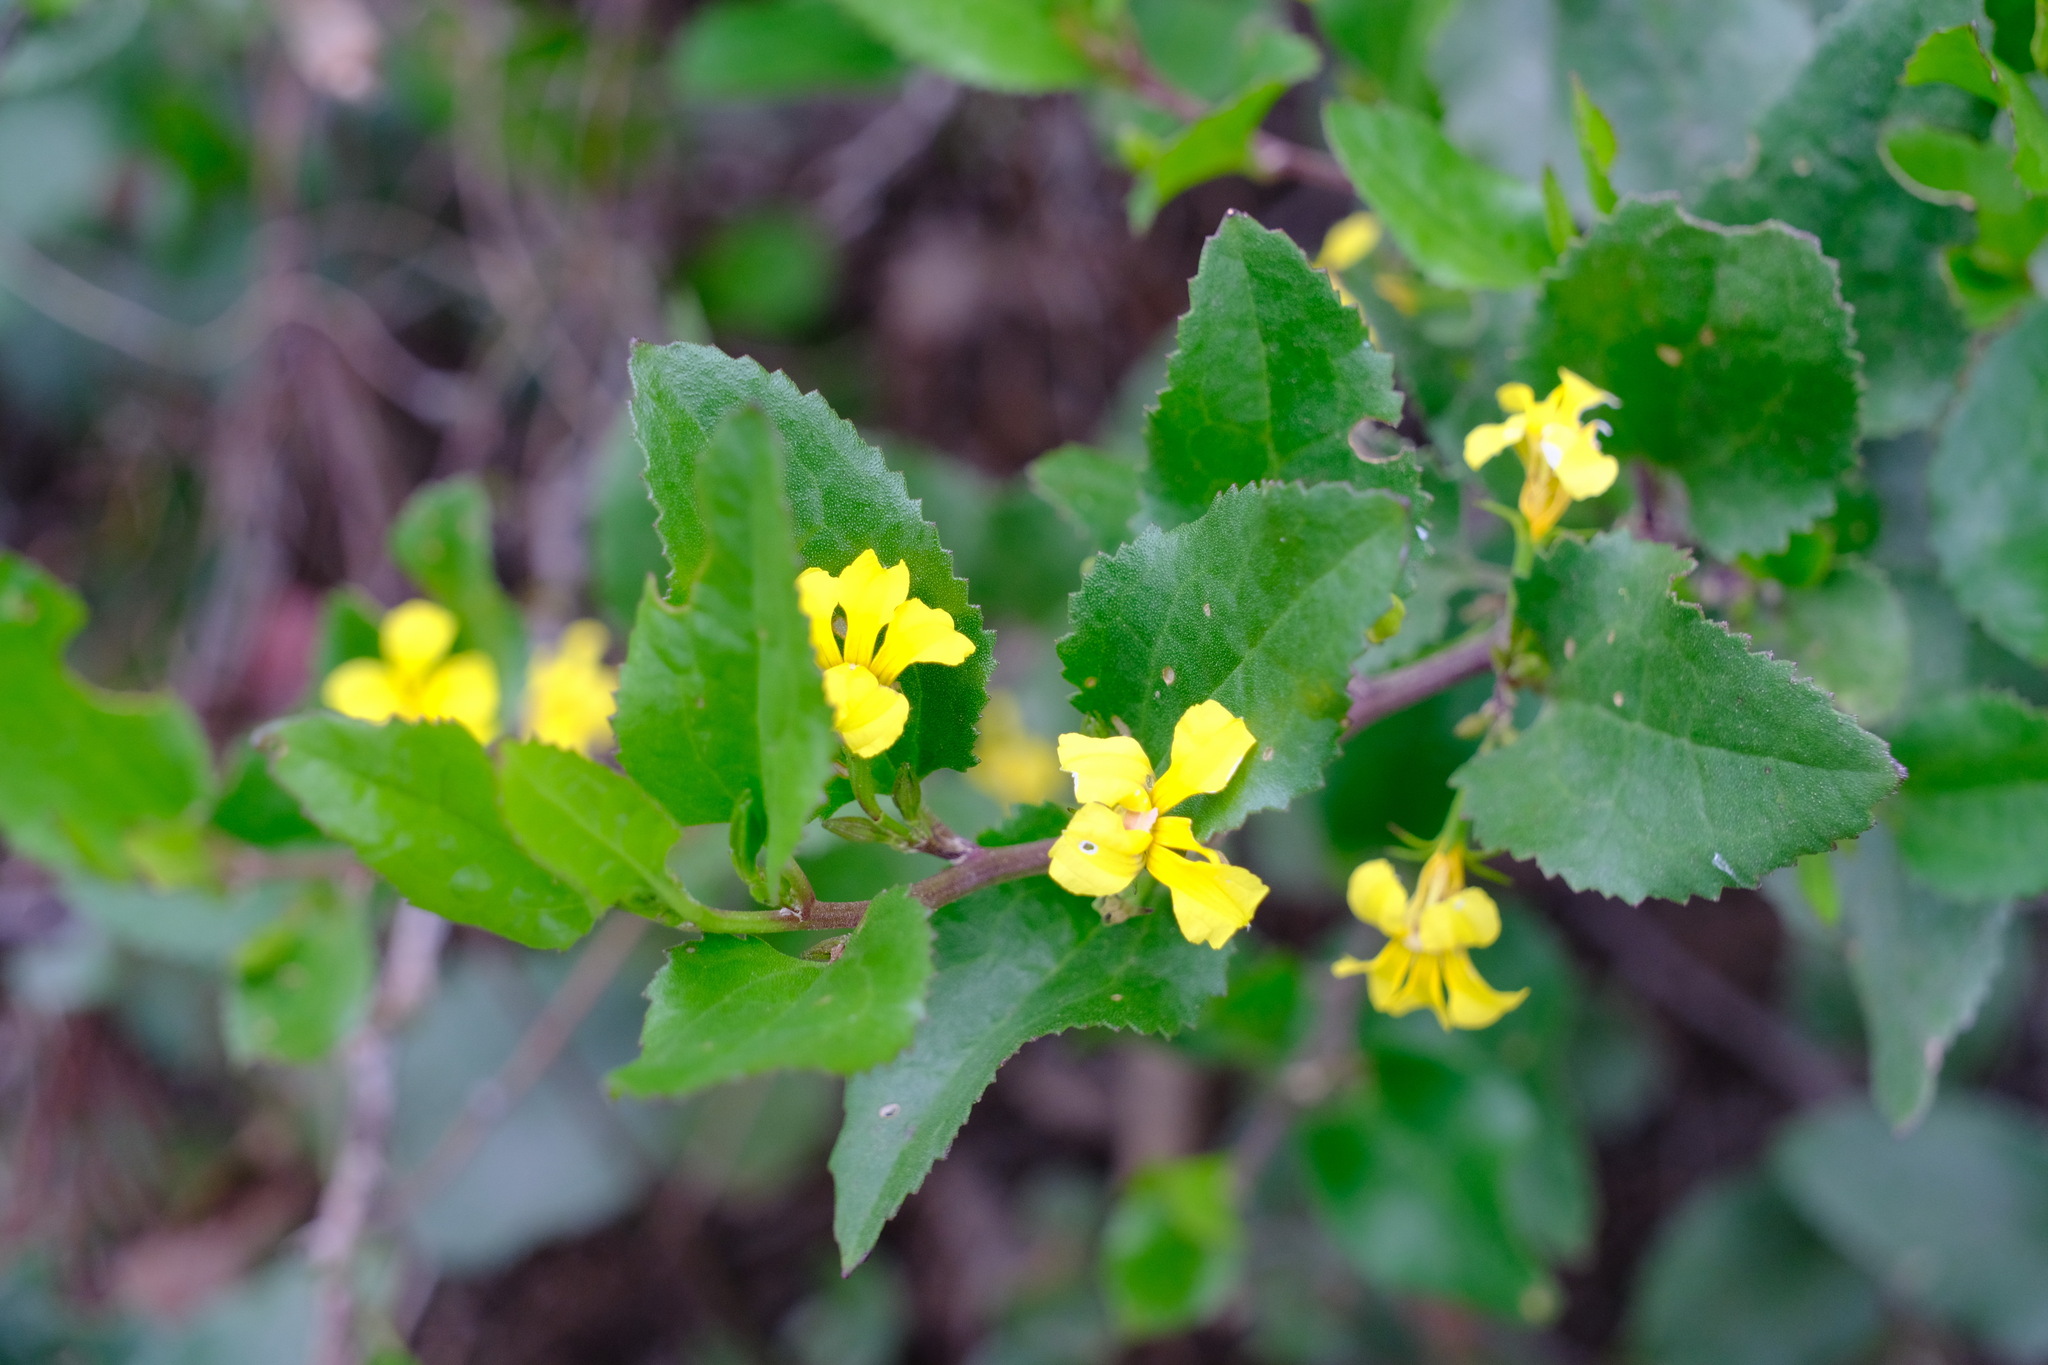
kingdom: Plantae
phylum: Tracheophyta
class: Magnoliopsida
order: Asterales
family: Goodeniaceae
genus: Goodenia
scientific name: Goodenia ovata
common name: Hop goodenia
